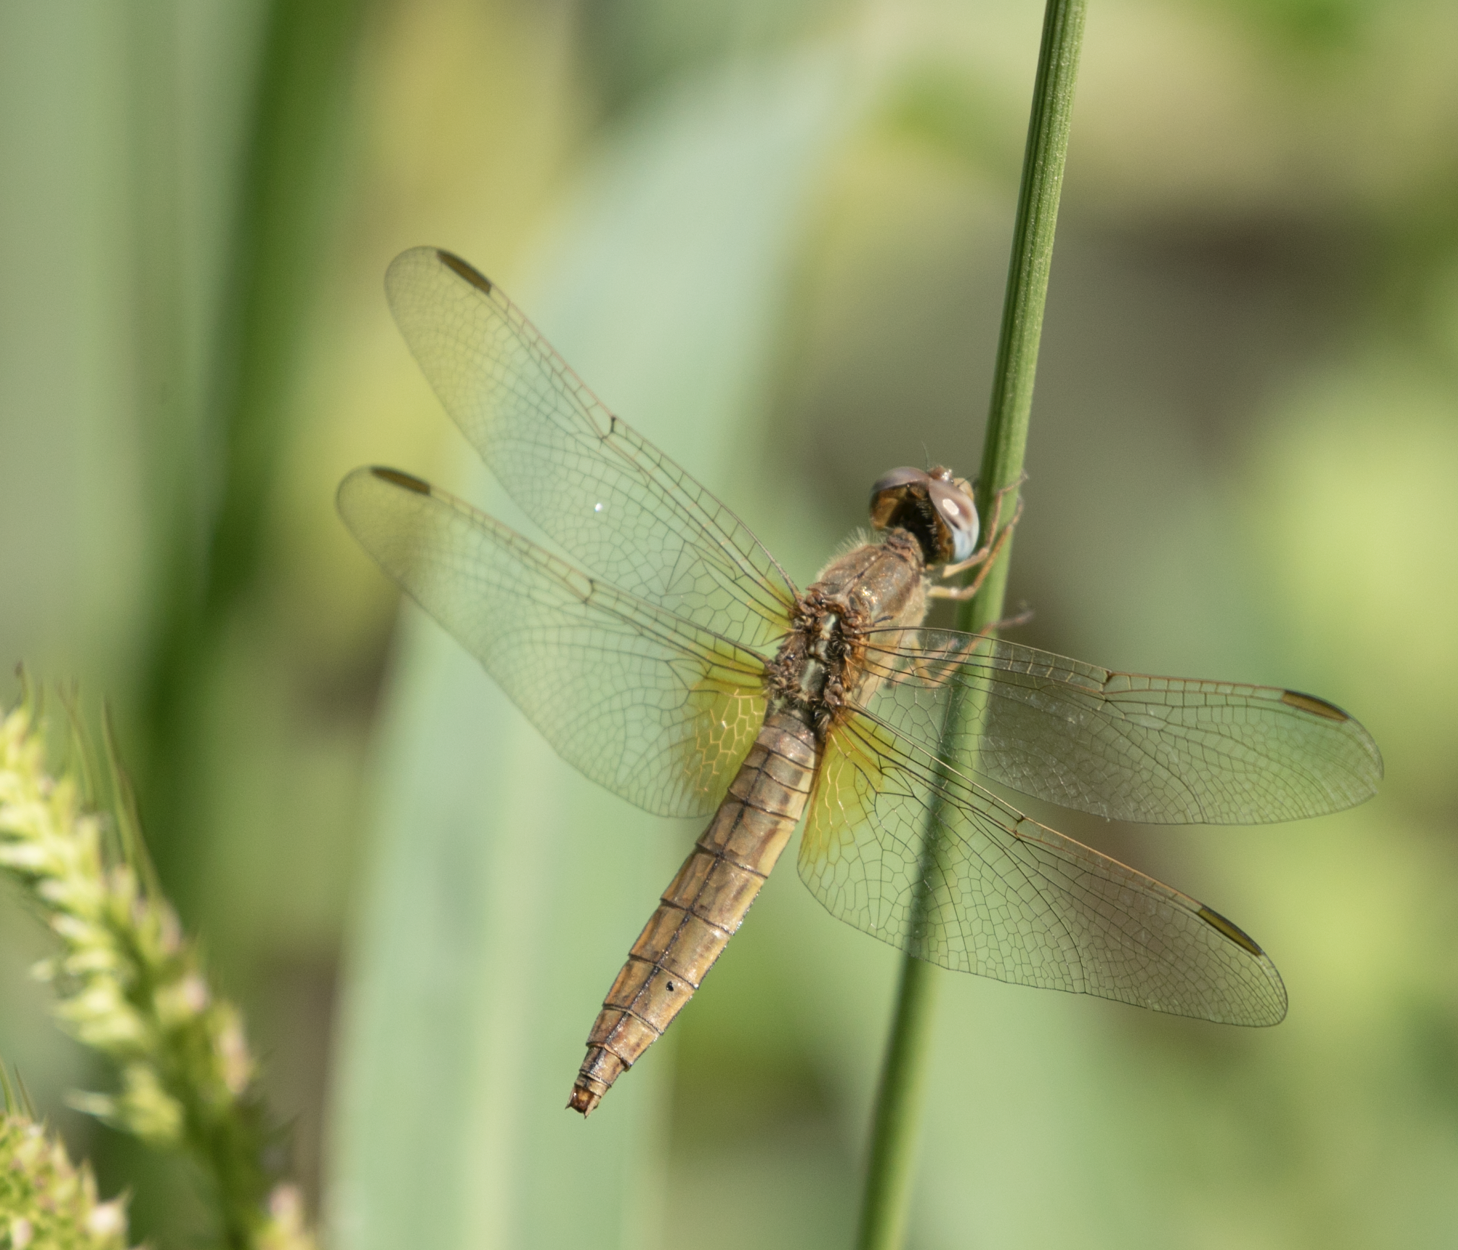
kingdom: Animalia
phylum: Arthropoda
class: Insecta
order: Odonata
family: Libellulidae
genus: Crocothemis
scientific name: Crocothemis erythraea
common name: Scarlet dragonfly
